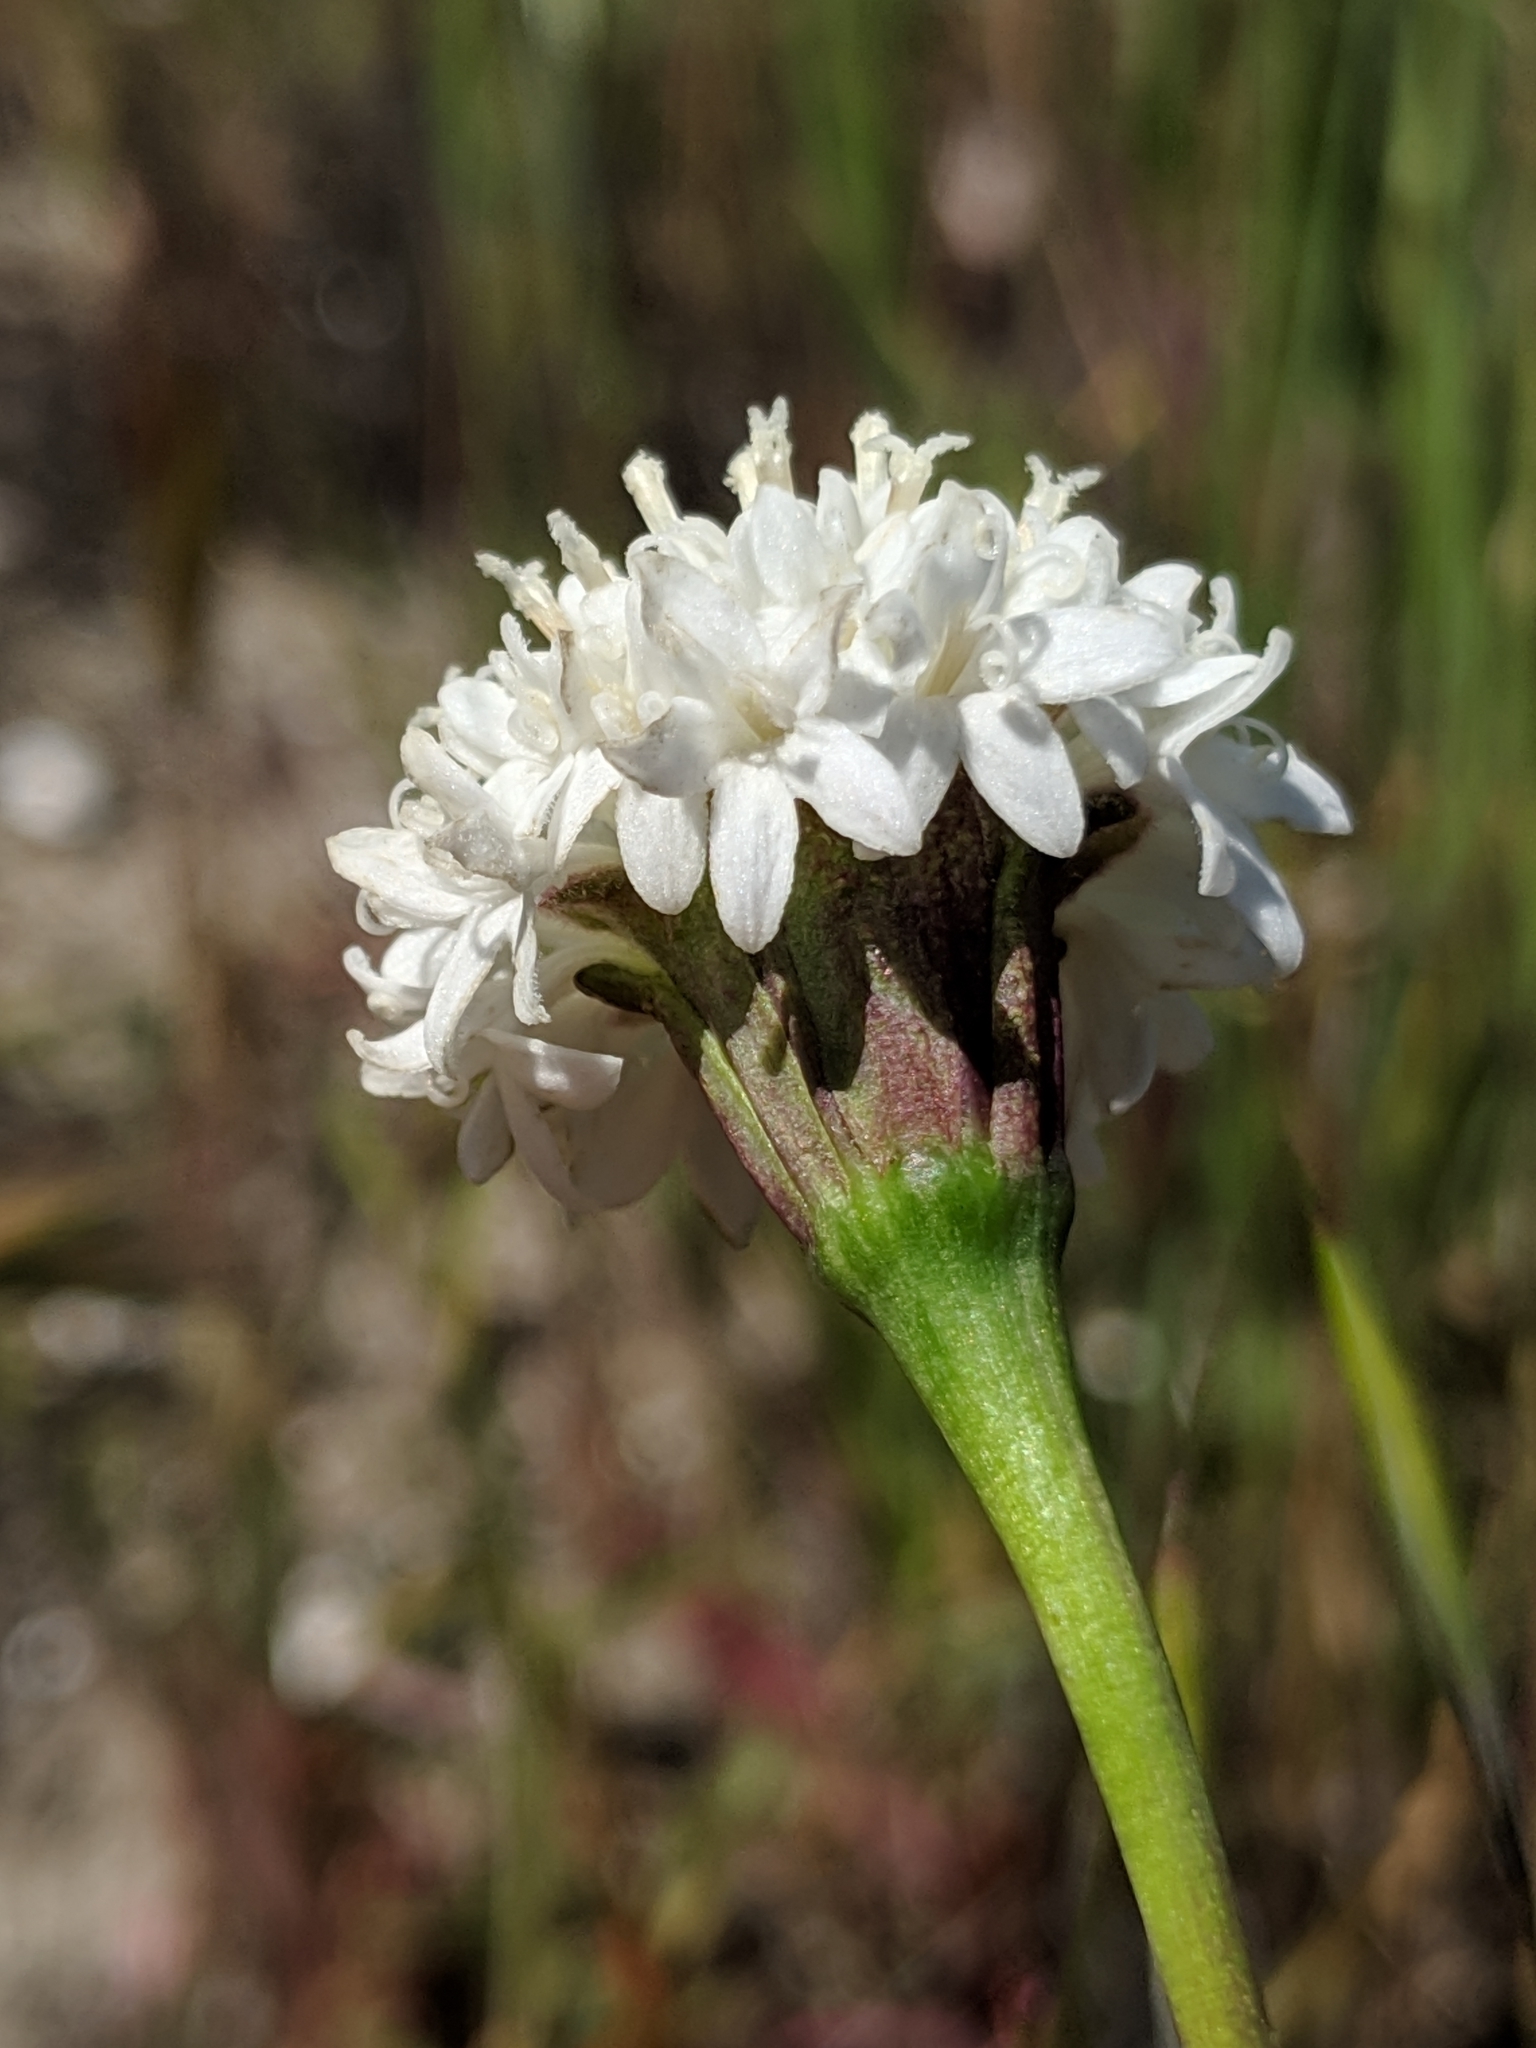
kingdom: Plantae
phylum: Tracheophyta
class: Magnoliopsida
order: Asterales
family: Asteraceae
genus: Chaenactis
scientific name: Chaenactis xantiana
